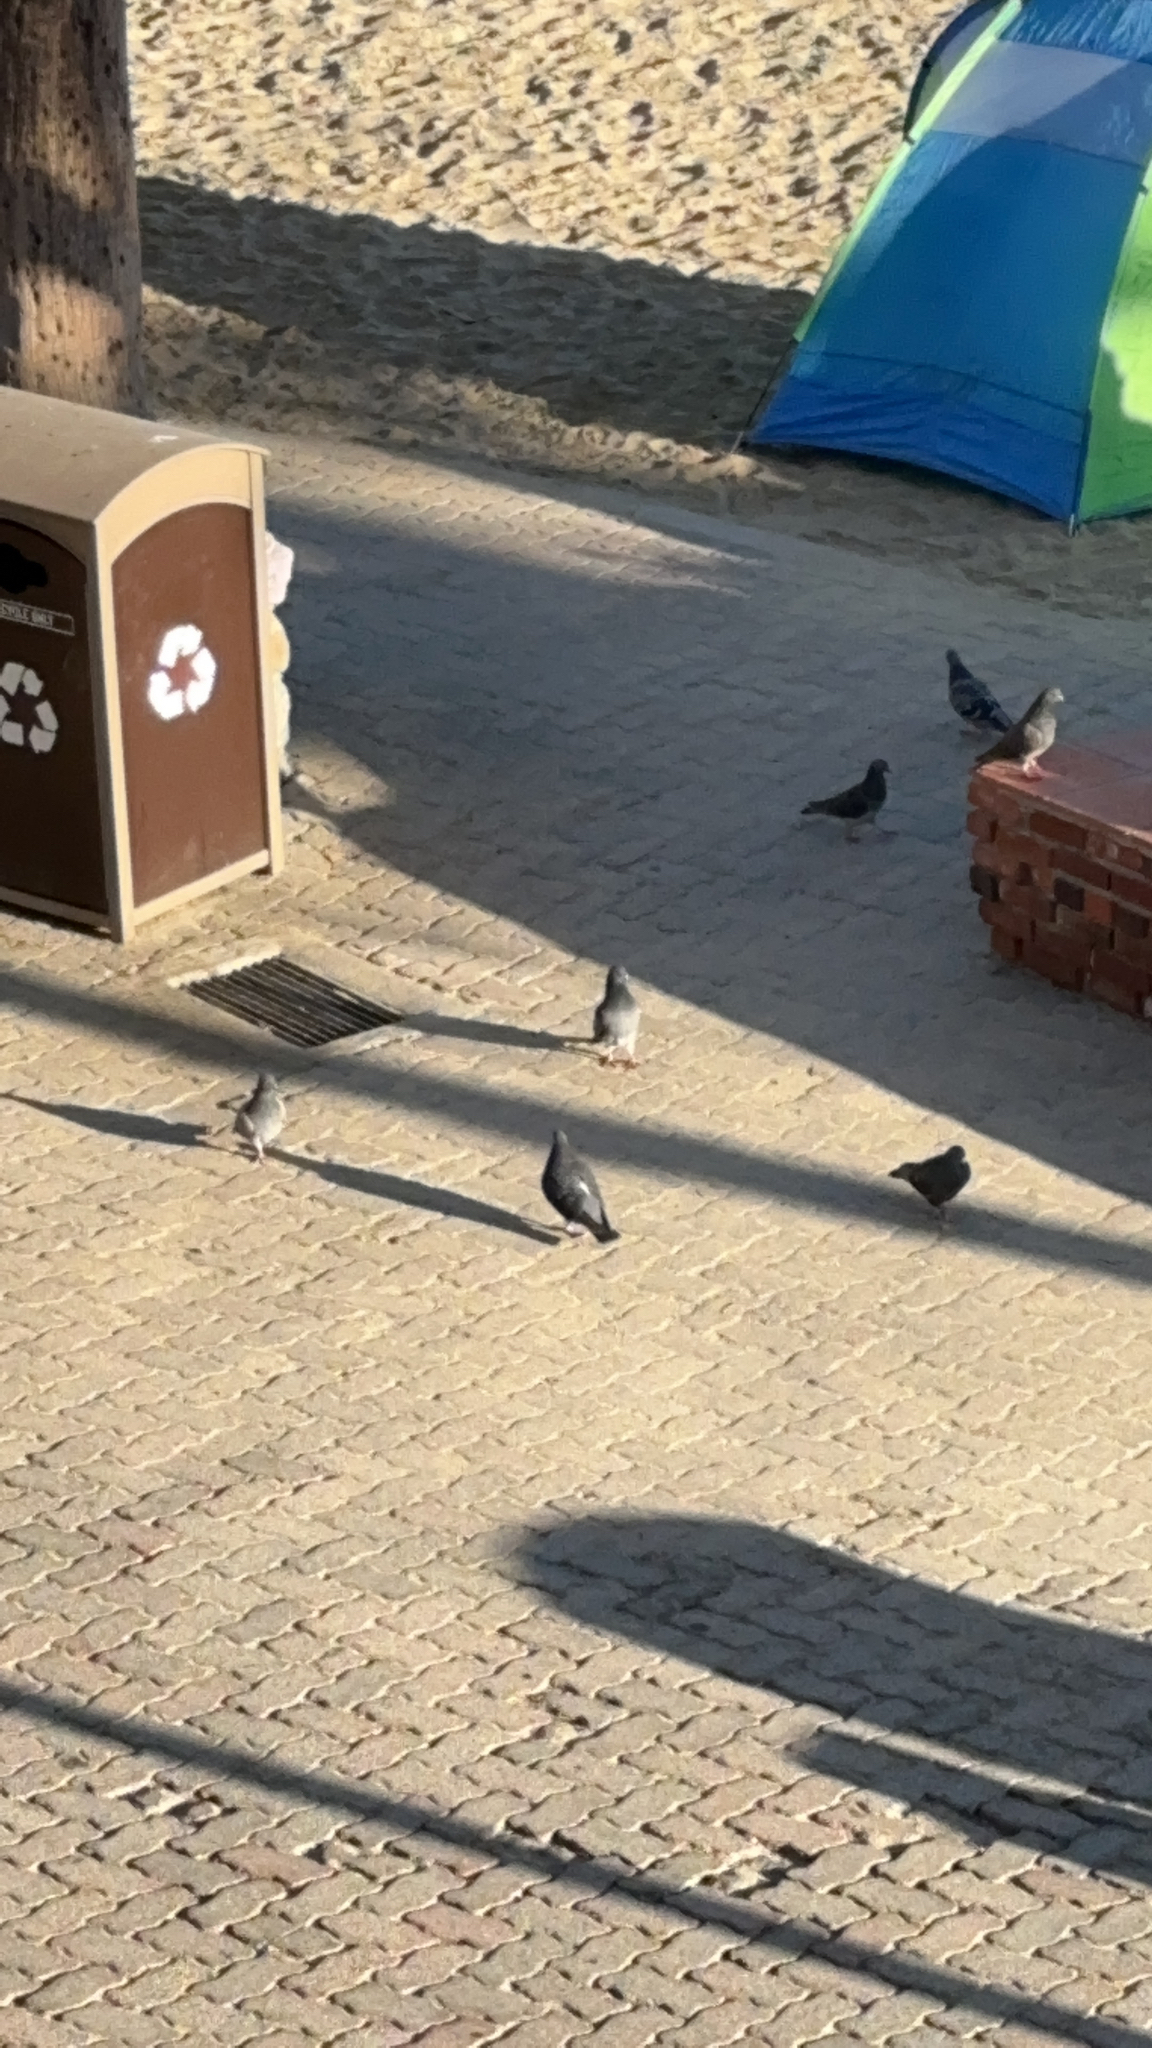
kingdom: Animalia
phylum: Chordata
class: Aves
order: Columbiformes
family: Columbidae
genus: Columba
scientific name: Columba livia
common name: Rock pigeon
